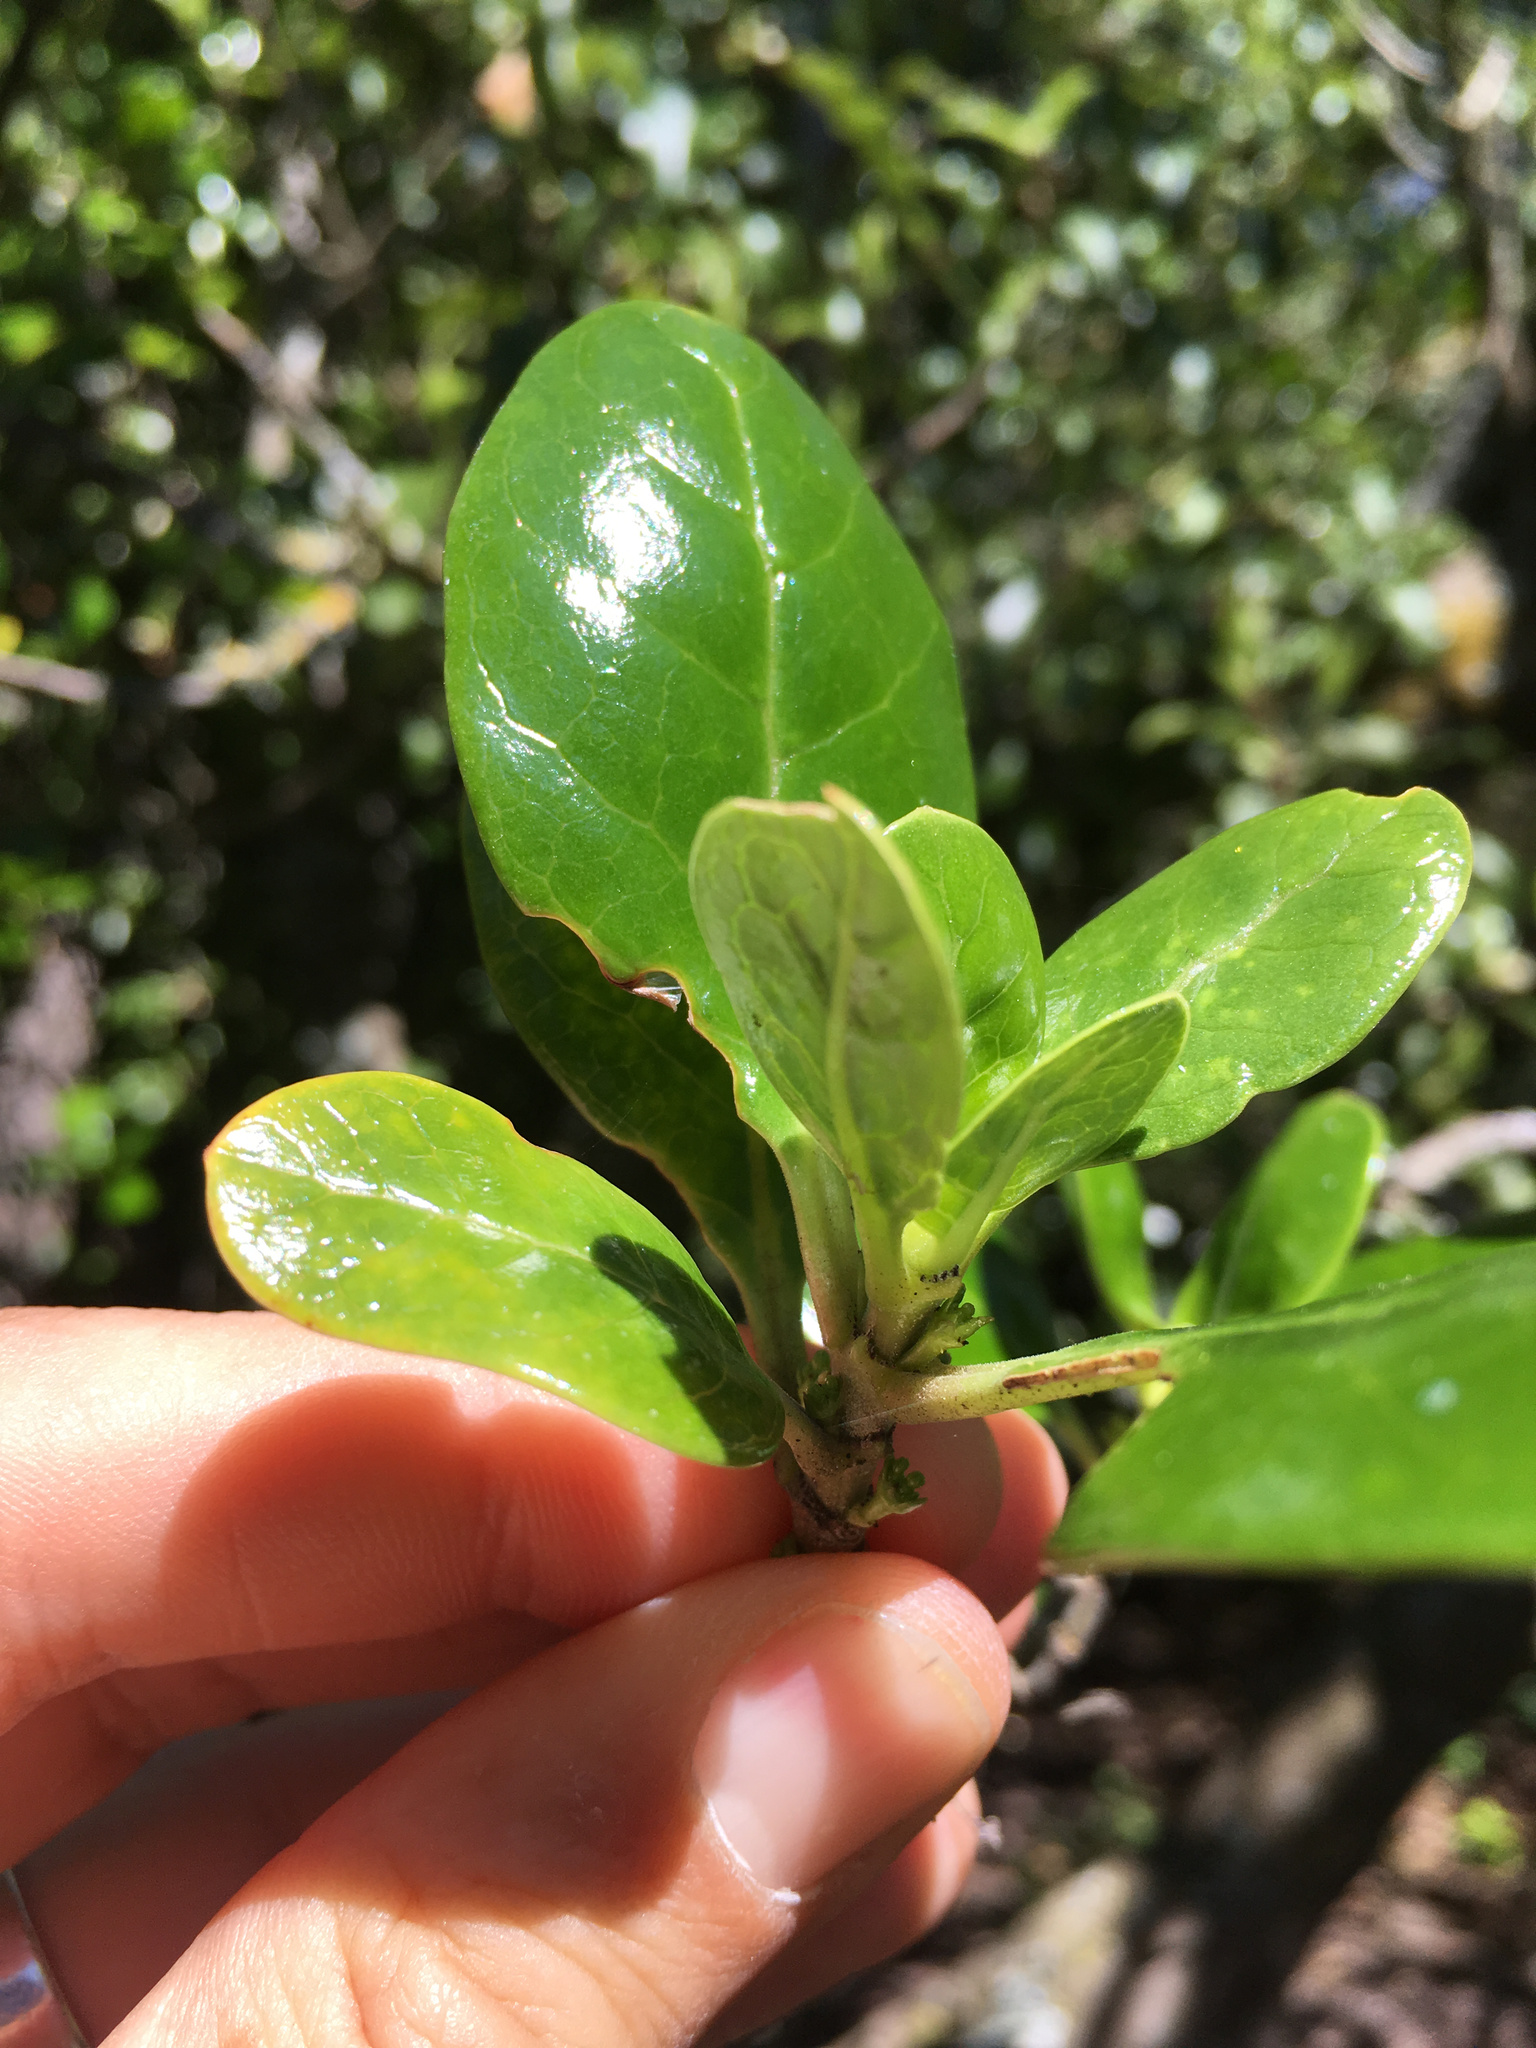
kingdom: Plantae
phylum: Tracheophyta
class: Magnoliopsida
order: Gentianales
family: Rubiaceae
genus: Coprosma
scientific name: Coprosma repens
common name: Tree bedstraw
